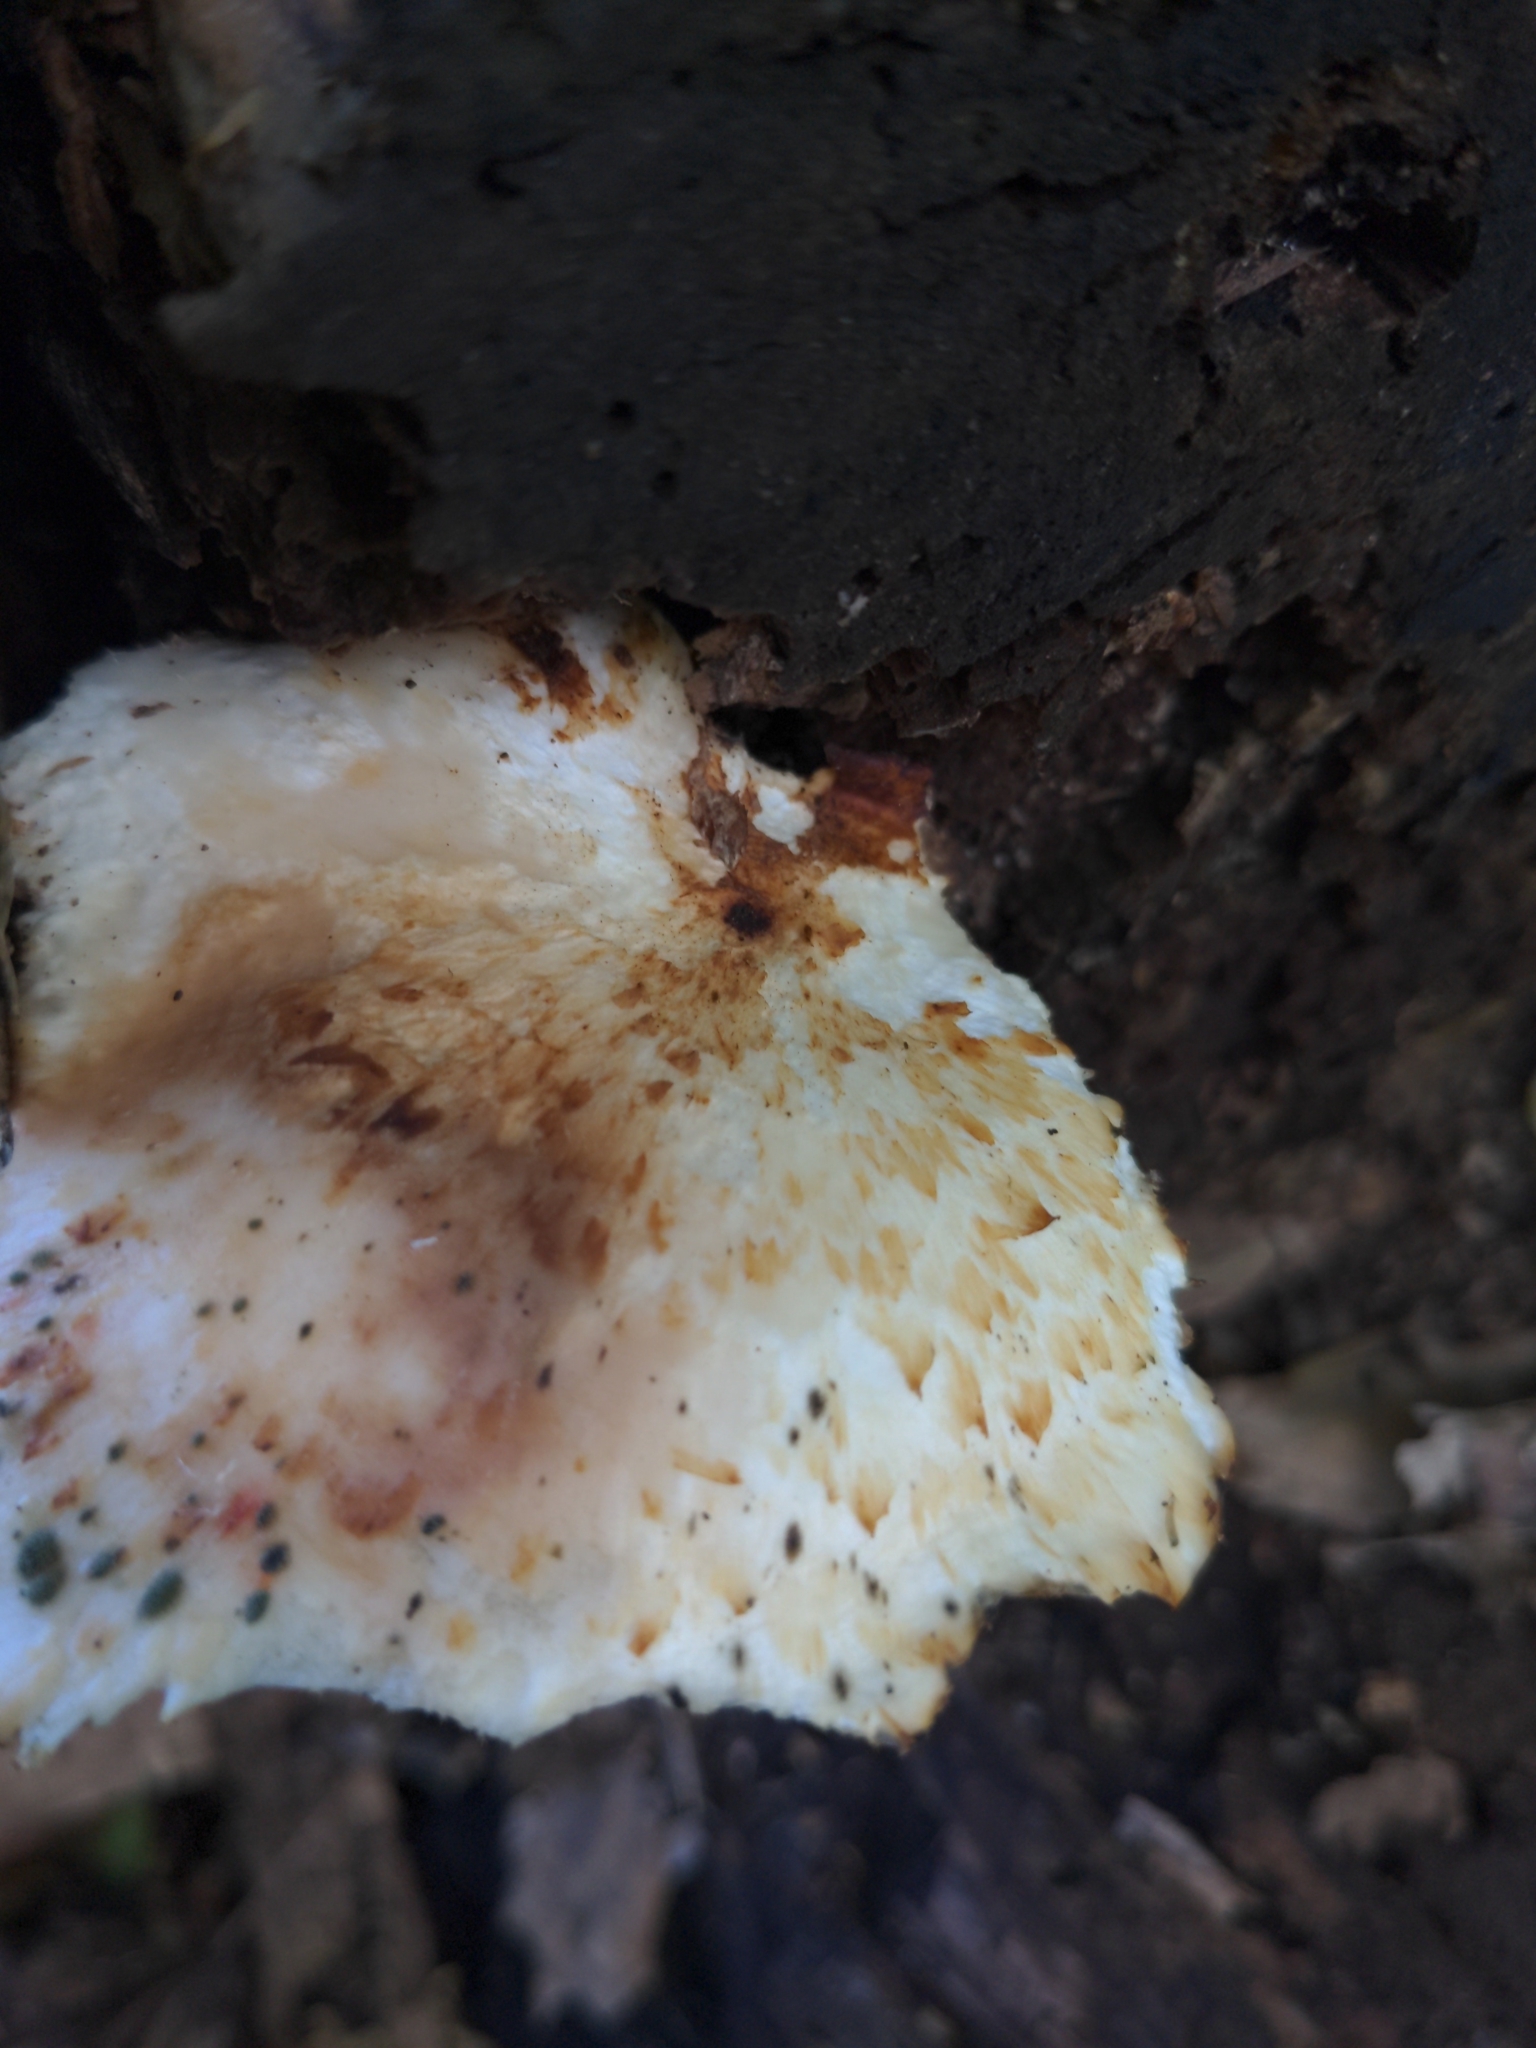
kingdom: Fungi
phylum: Basidiomycota
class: Agaricomycetes
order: Polyporales
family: Polyporaceae
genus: Cerioporus
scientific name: Cerioporus squamosus
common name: Dryad's saddle
